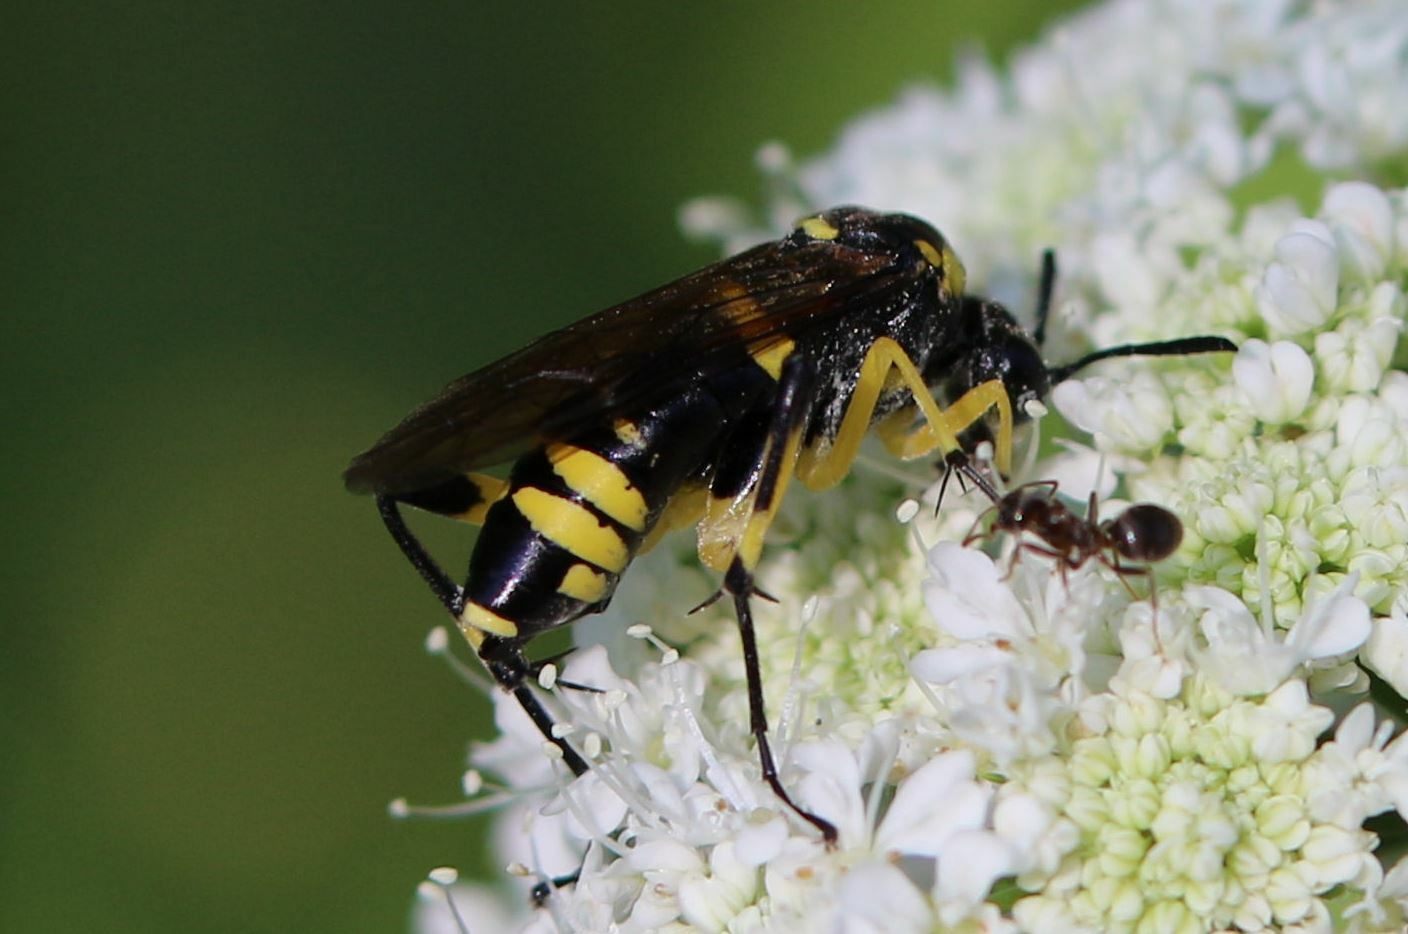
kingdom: Animalia
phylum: Arthropoda
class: Insecta
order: Hymenoptera
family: Tenthredinidae
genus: Macrophya
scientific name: Macrophya montana
